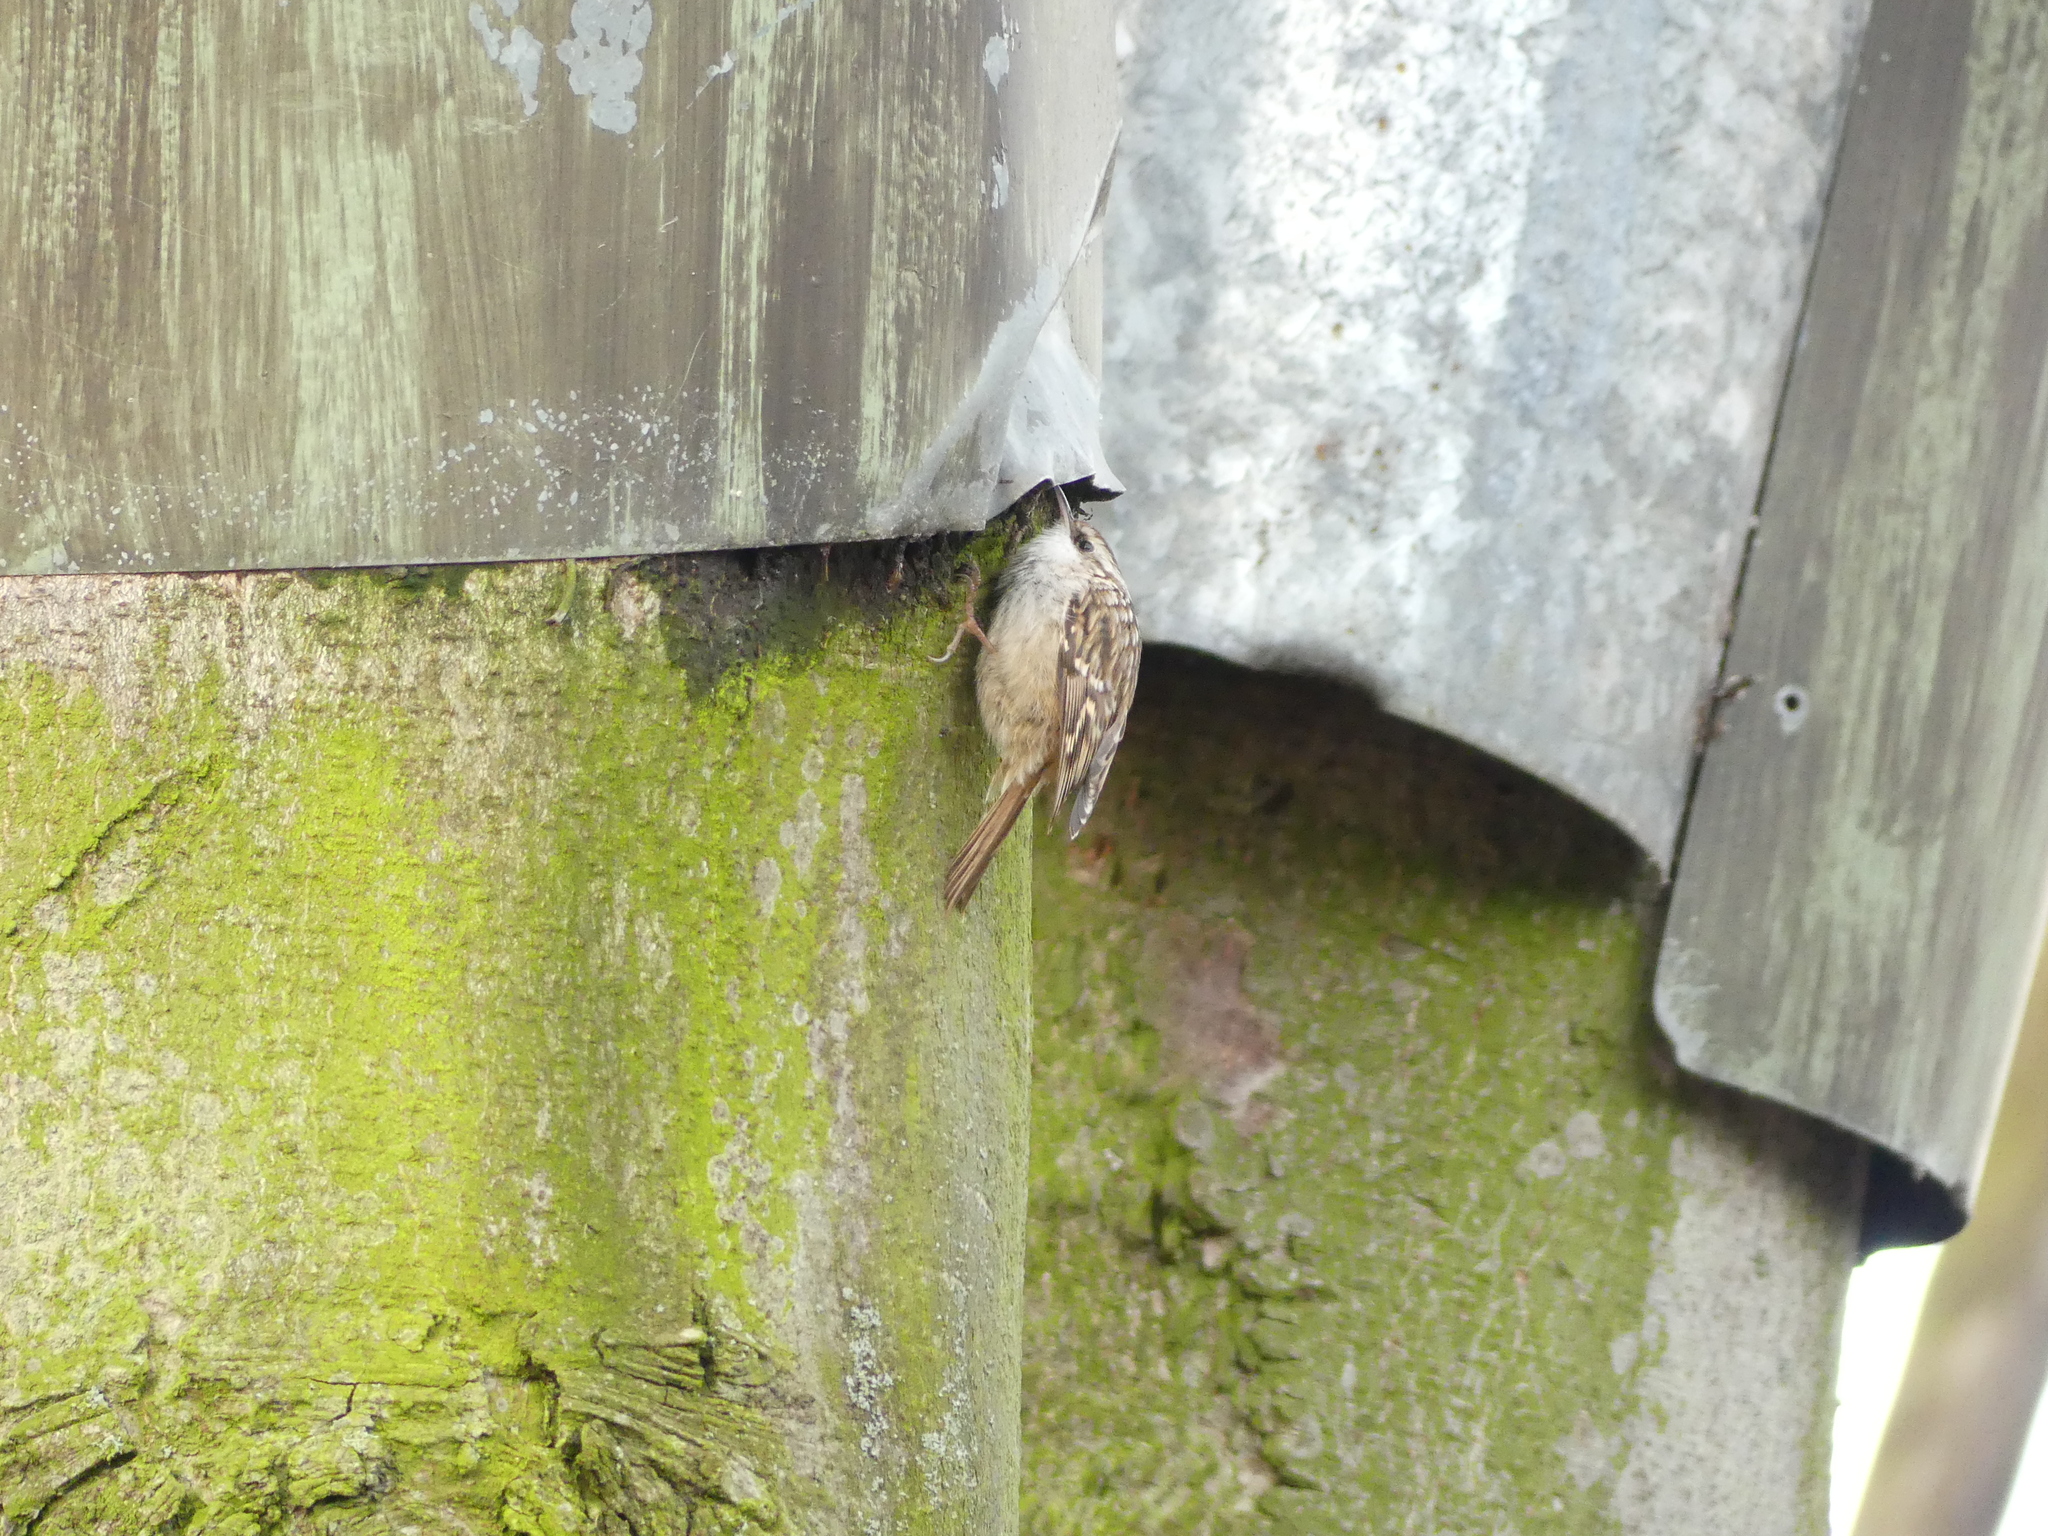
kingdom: Animalia
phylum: Chordata
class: Aves
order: Passeriformes
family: Certhiidae
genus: Certhia
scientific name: Certhia brachydactyla
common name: Short-toed treecreeper
